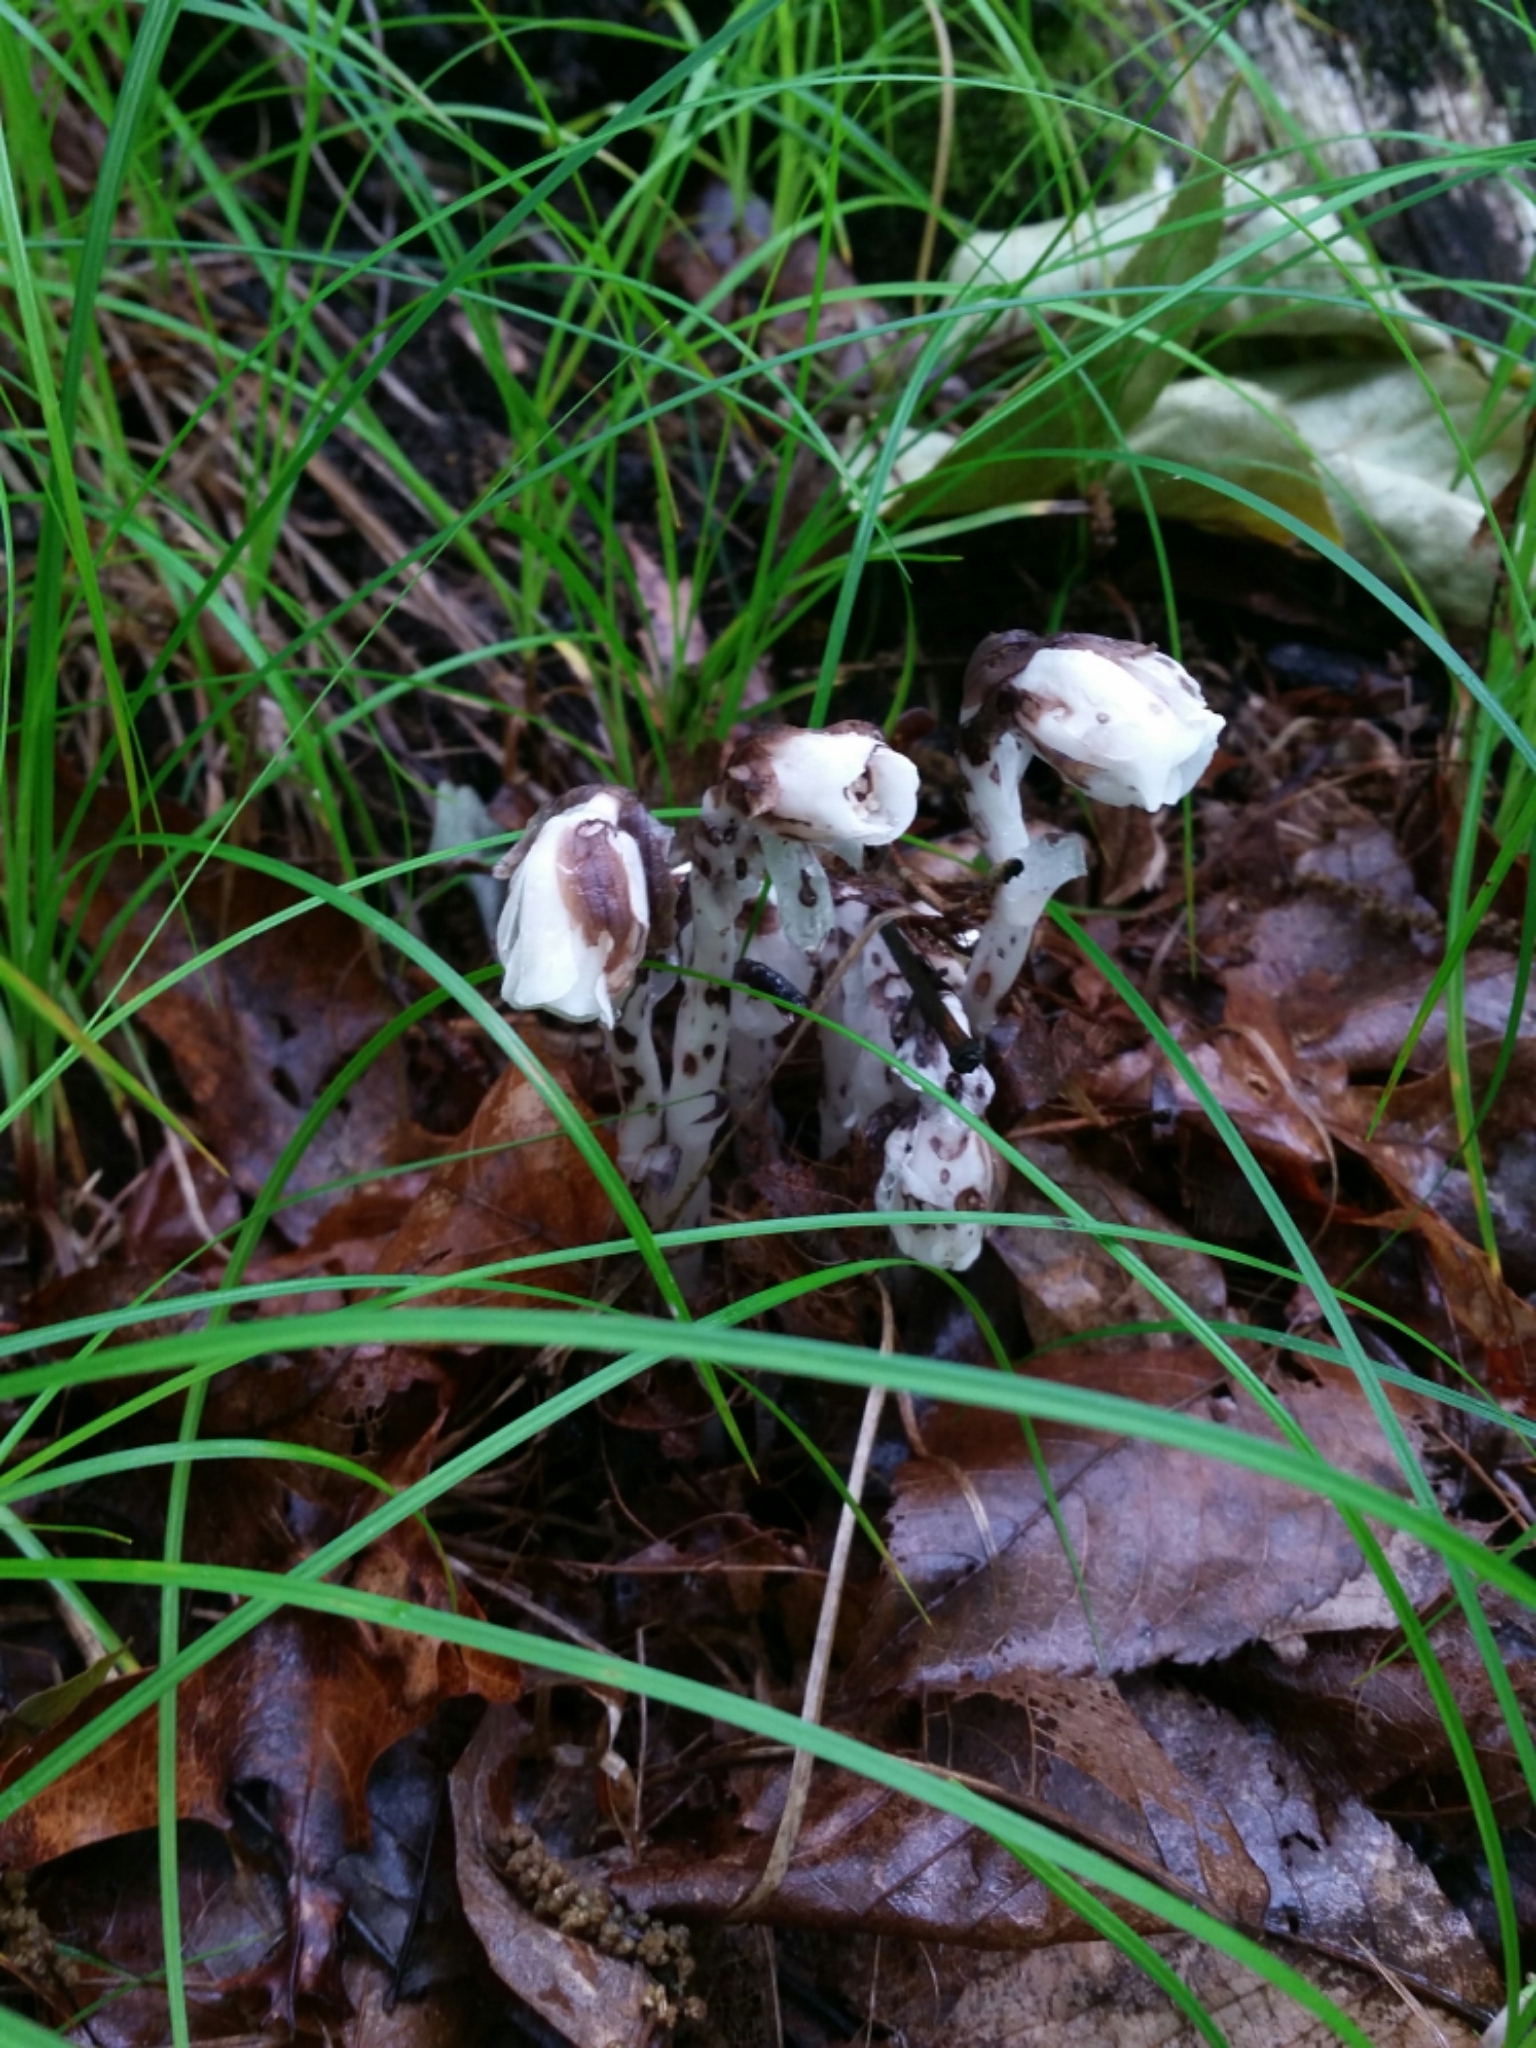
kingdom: Plantae
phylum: Tracheophyta
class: Magnoliopsida
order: Ericales
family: Ericaceae
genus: Monotropa
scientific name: Monotropa uniflora
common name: Convulsion root
